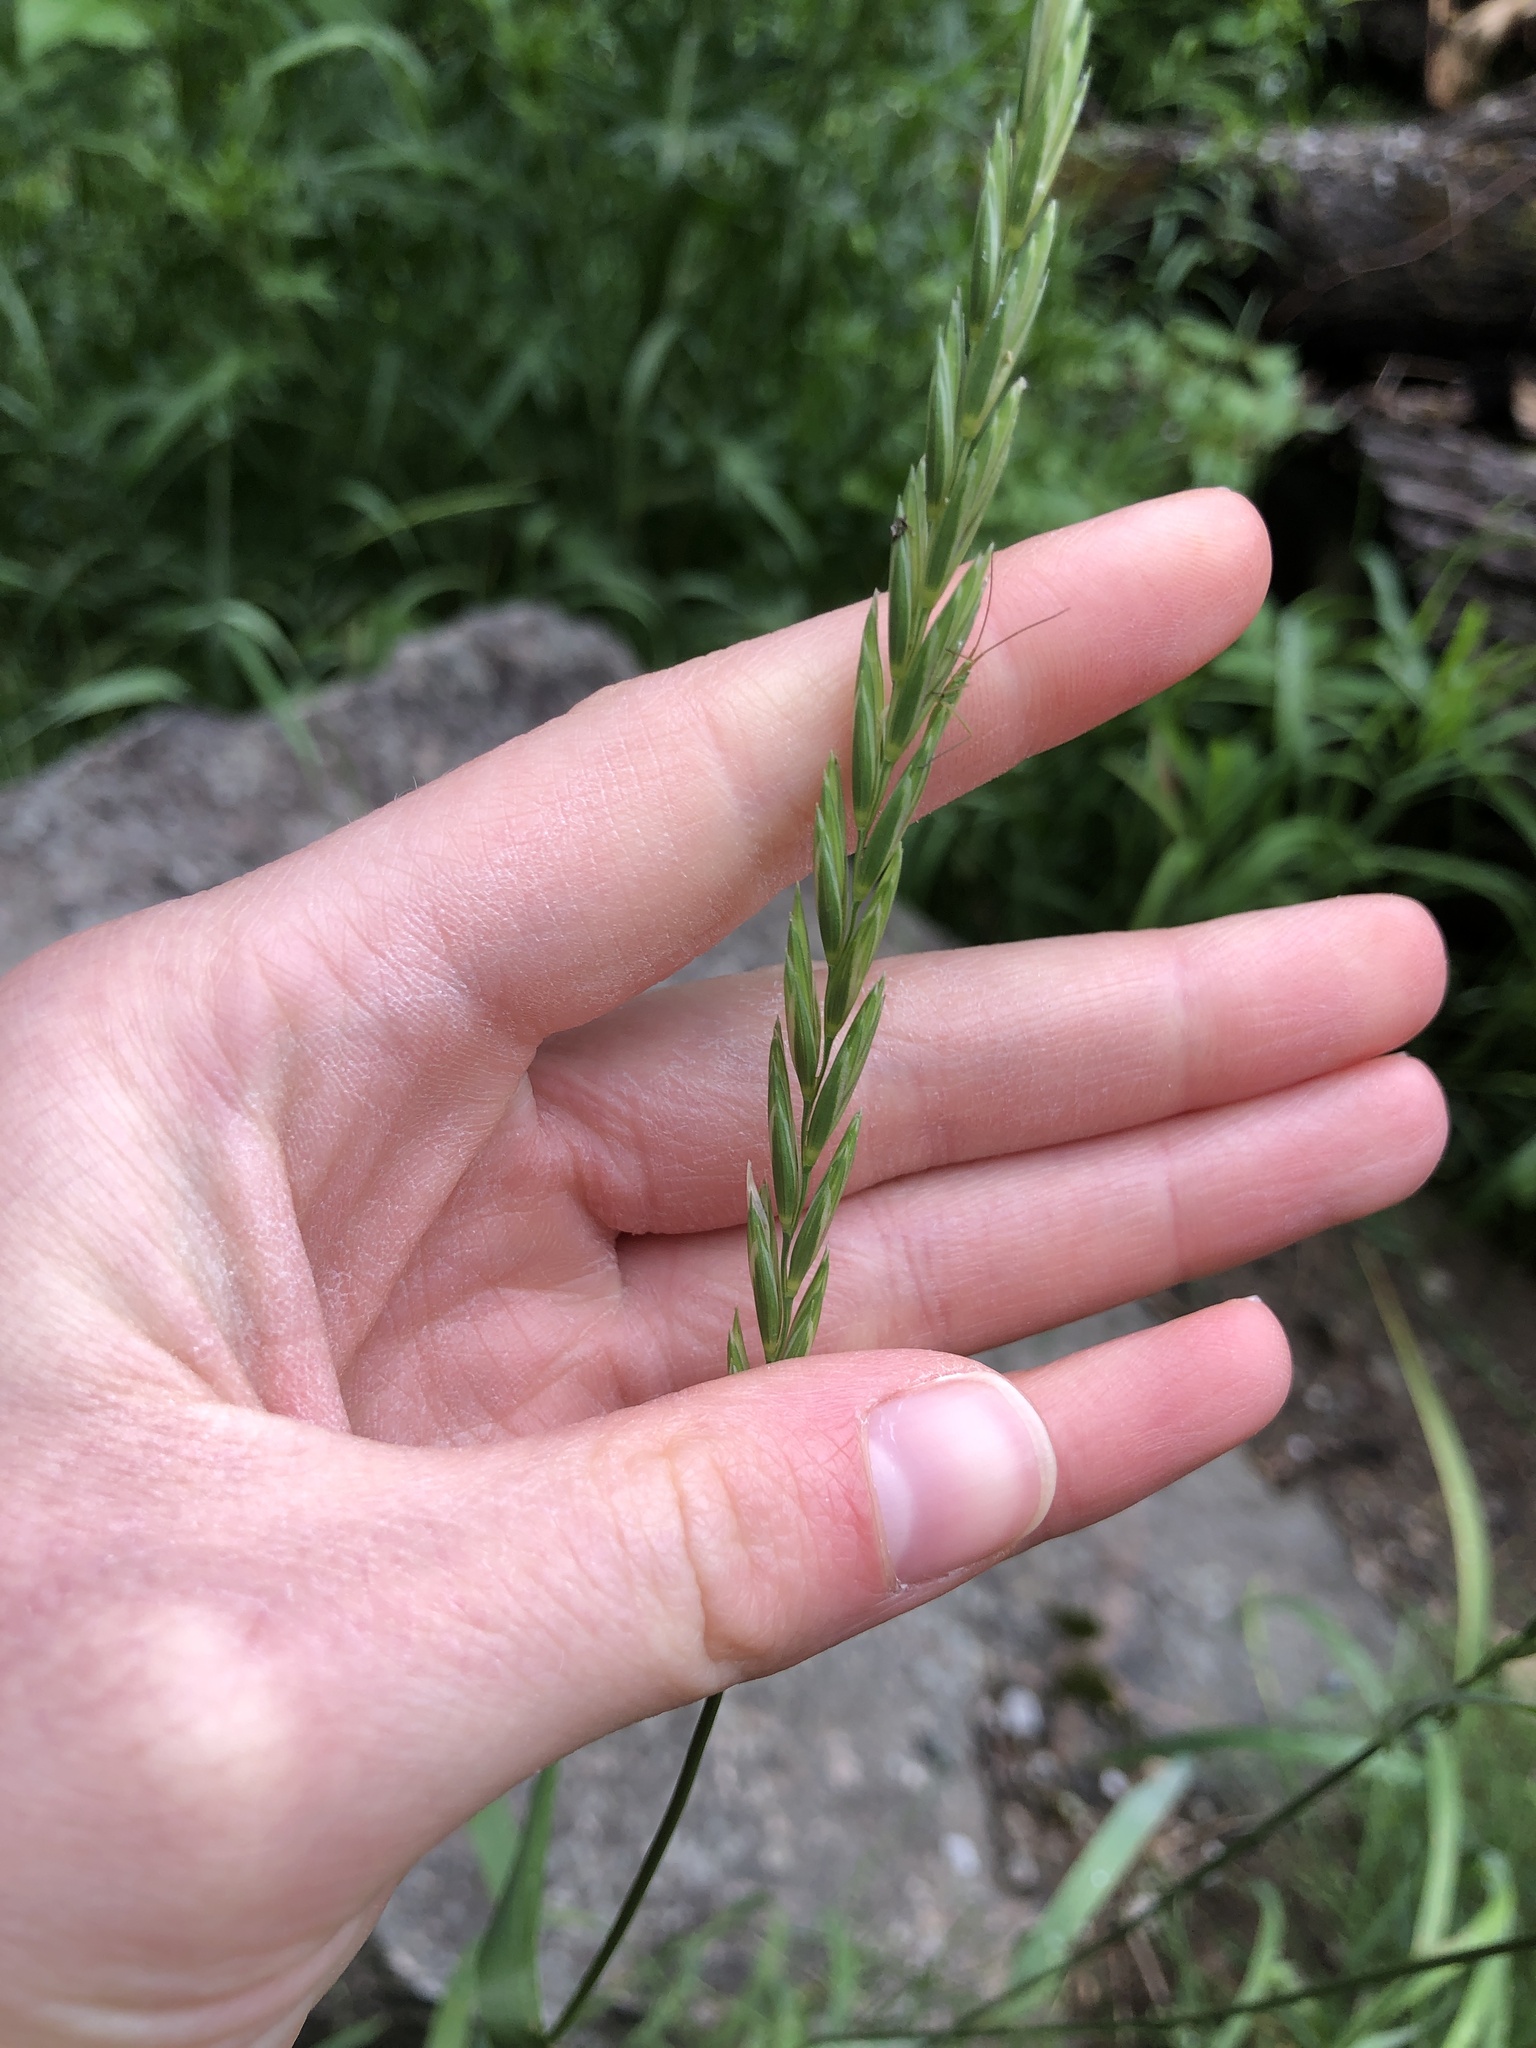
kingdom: Plantae
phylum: Tracheophyta
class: Liliopsida
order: Poales
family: Poaceae
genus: Elymus
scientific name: Elymus repens
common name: Quackgrass
